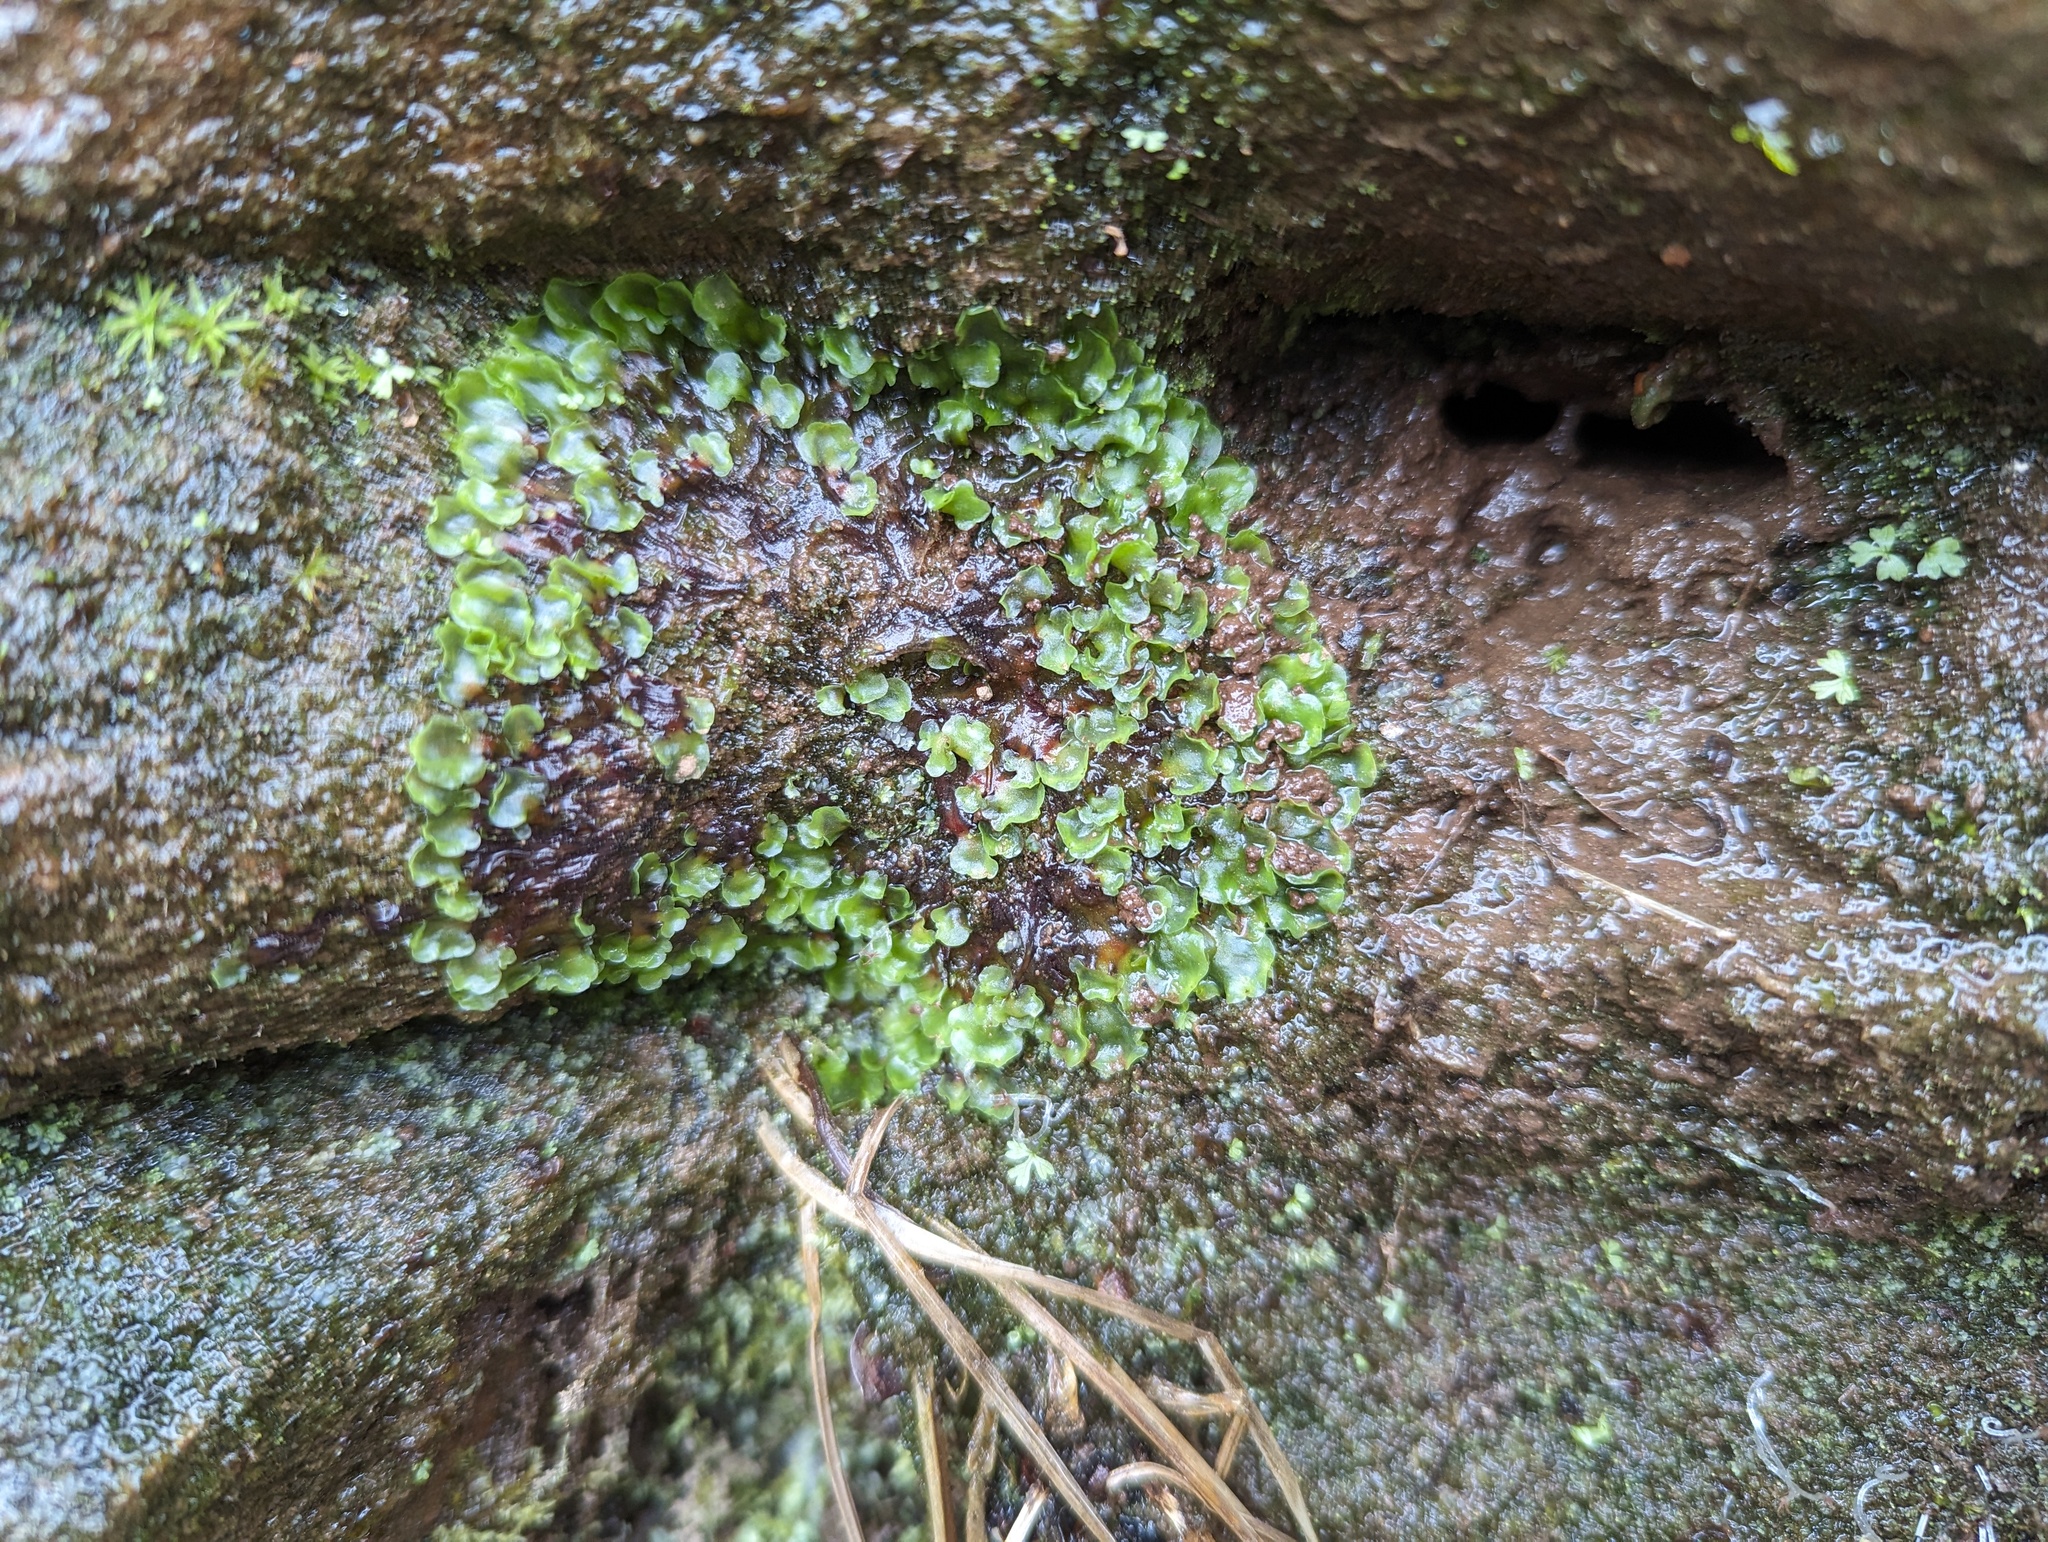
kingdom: Plantae
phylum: Marchantiophyta
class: Jungermanniopsida
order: Pelliales
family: Pelliaceae
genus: Pellia
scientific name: Pellia epiphylla
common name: Common pellia
